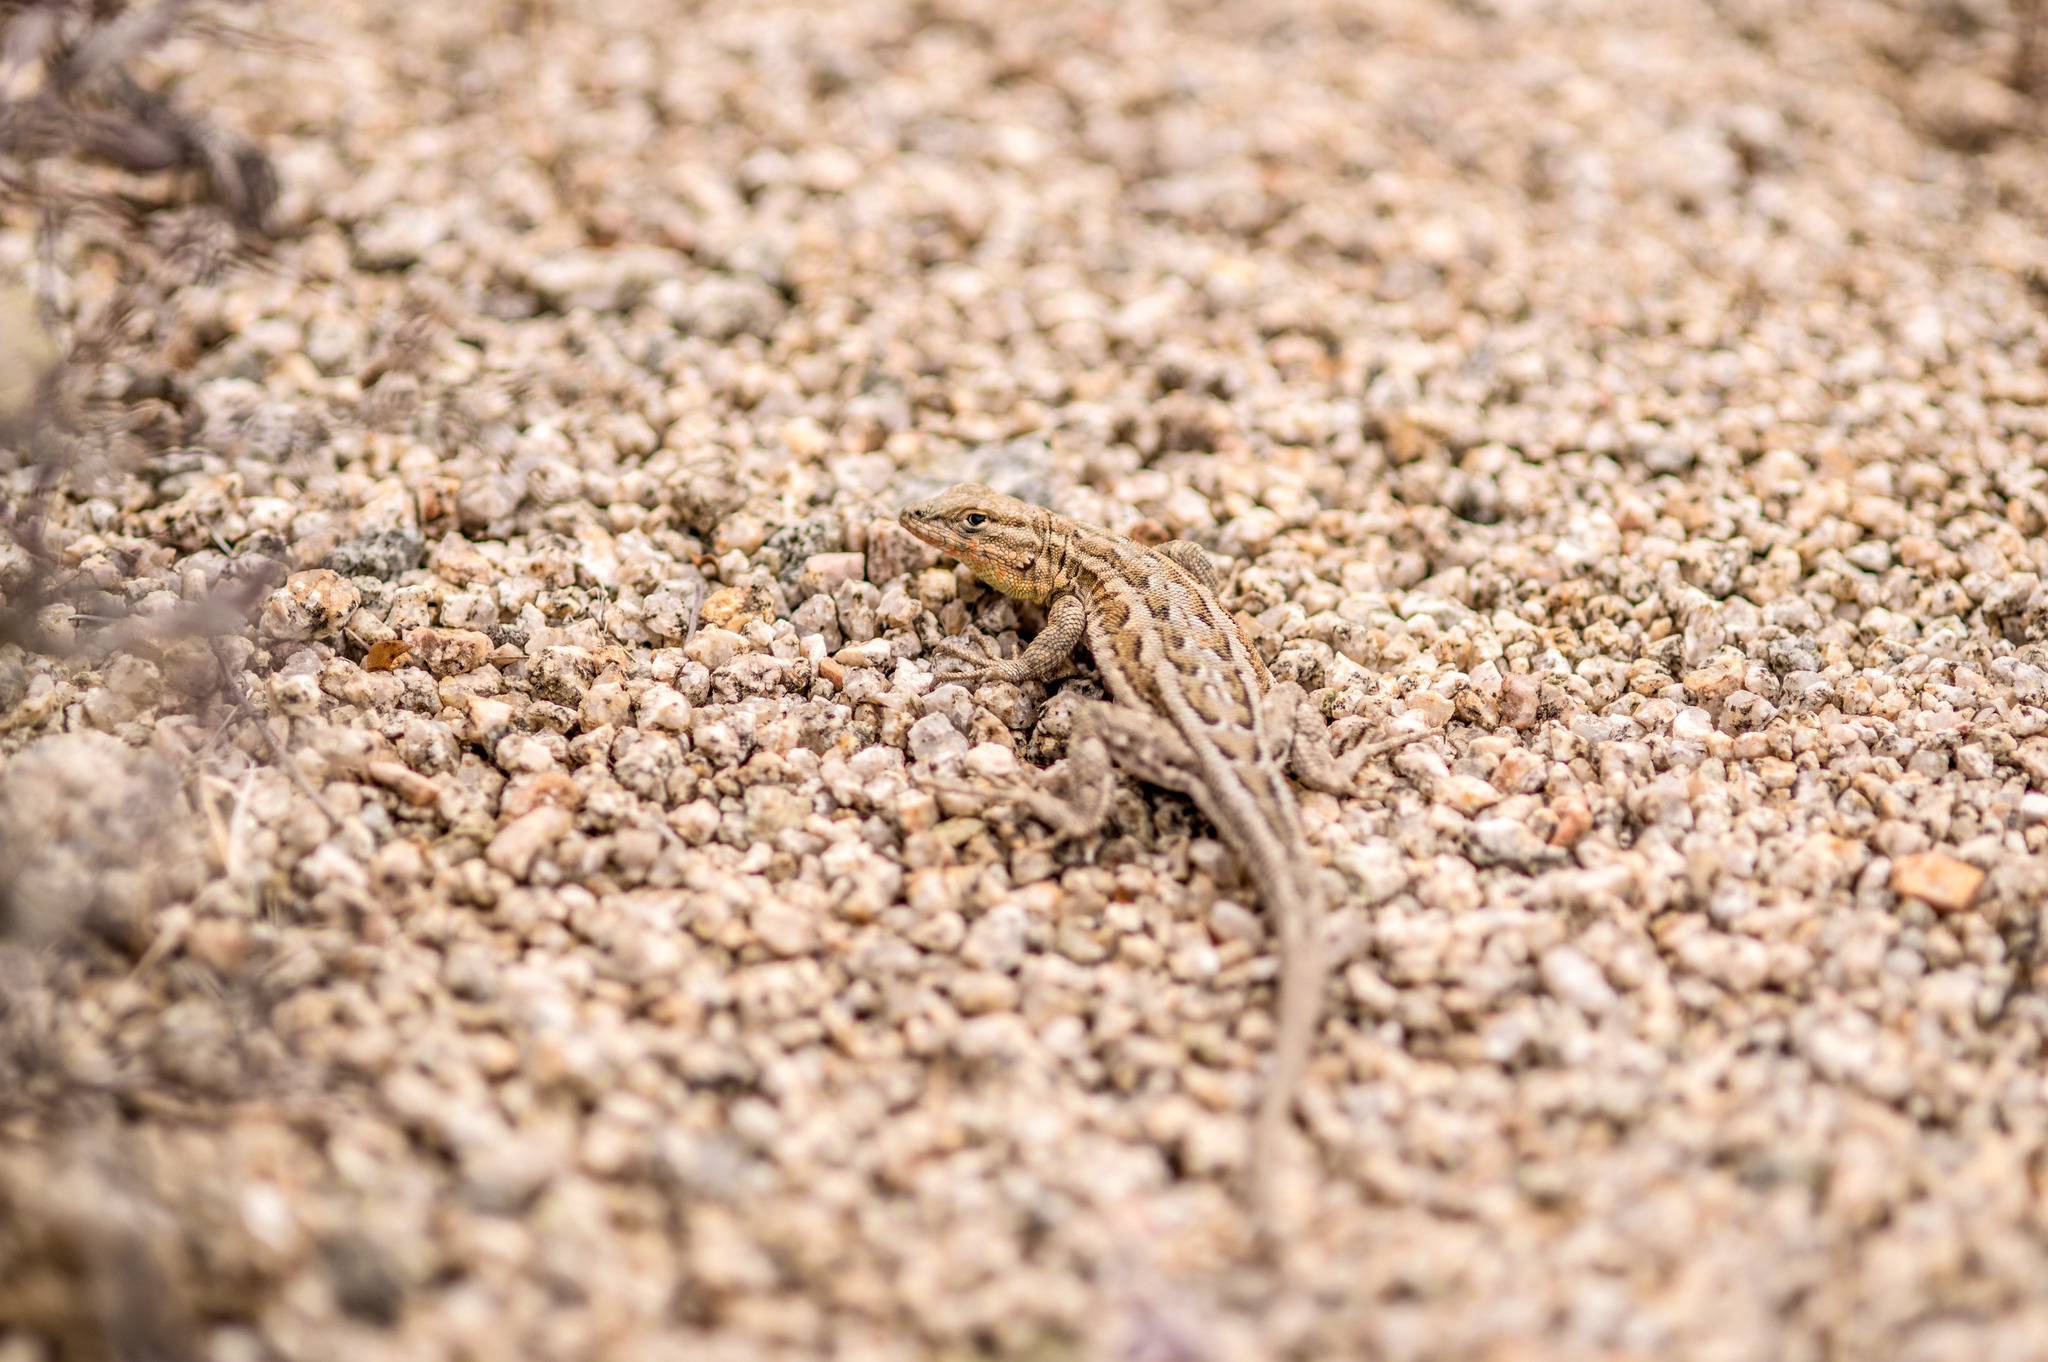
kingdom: Animalia
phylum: Chordata
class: Squamata
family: Phrynosomatidae
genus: Uta
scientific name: Uta stansburiana
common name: Side-blotched lizard
